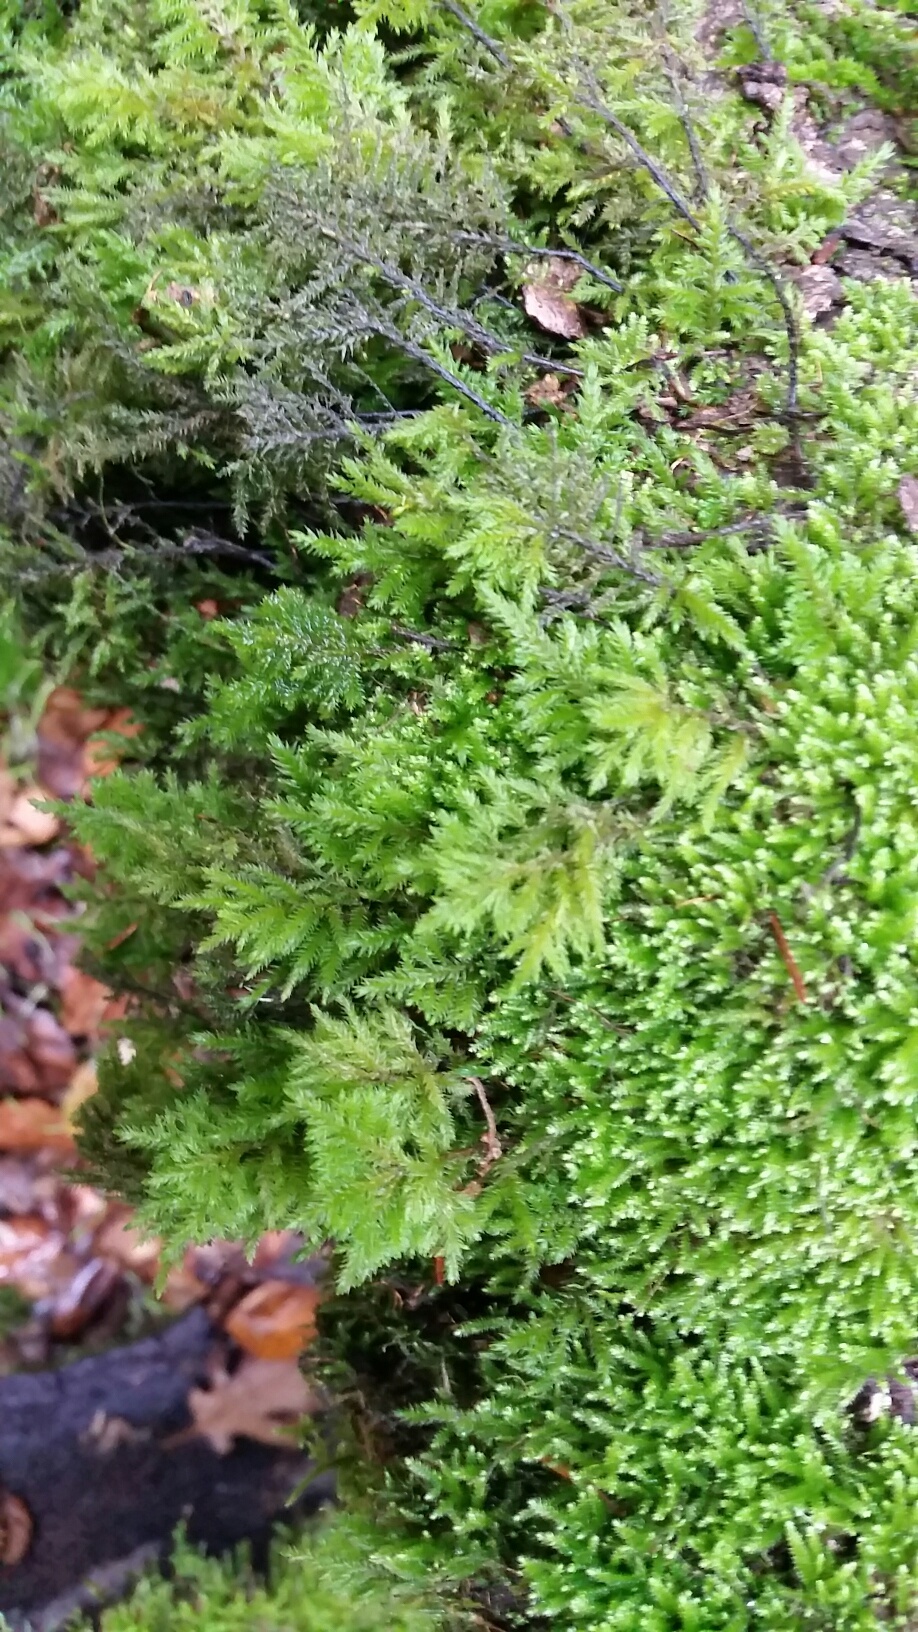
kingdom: Plantae
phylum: Bryophyta
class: Bryopsida
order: Hypnales
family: Cryphaeaceae
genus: Dendroalsia
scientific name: Dendroalsia abietina
